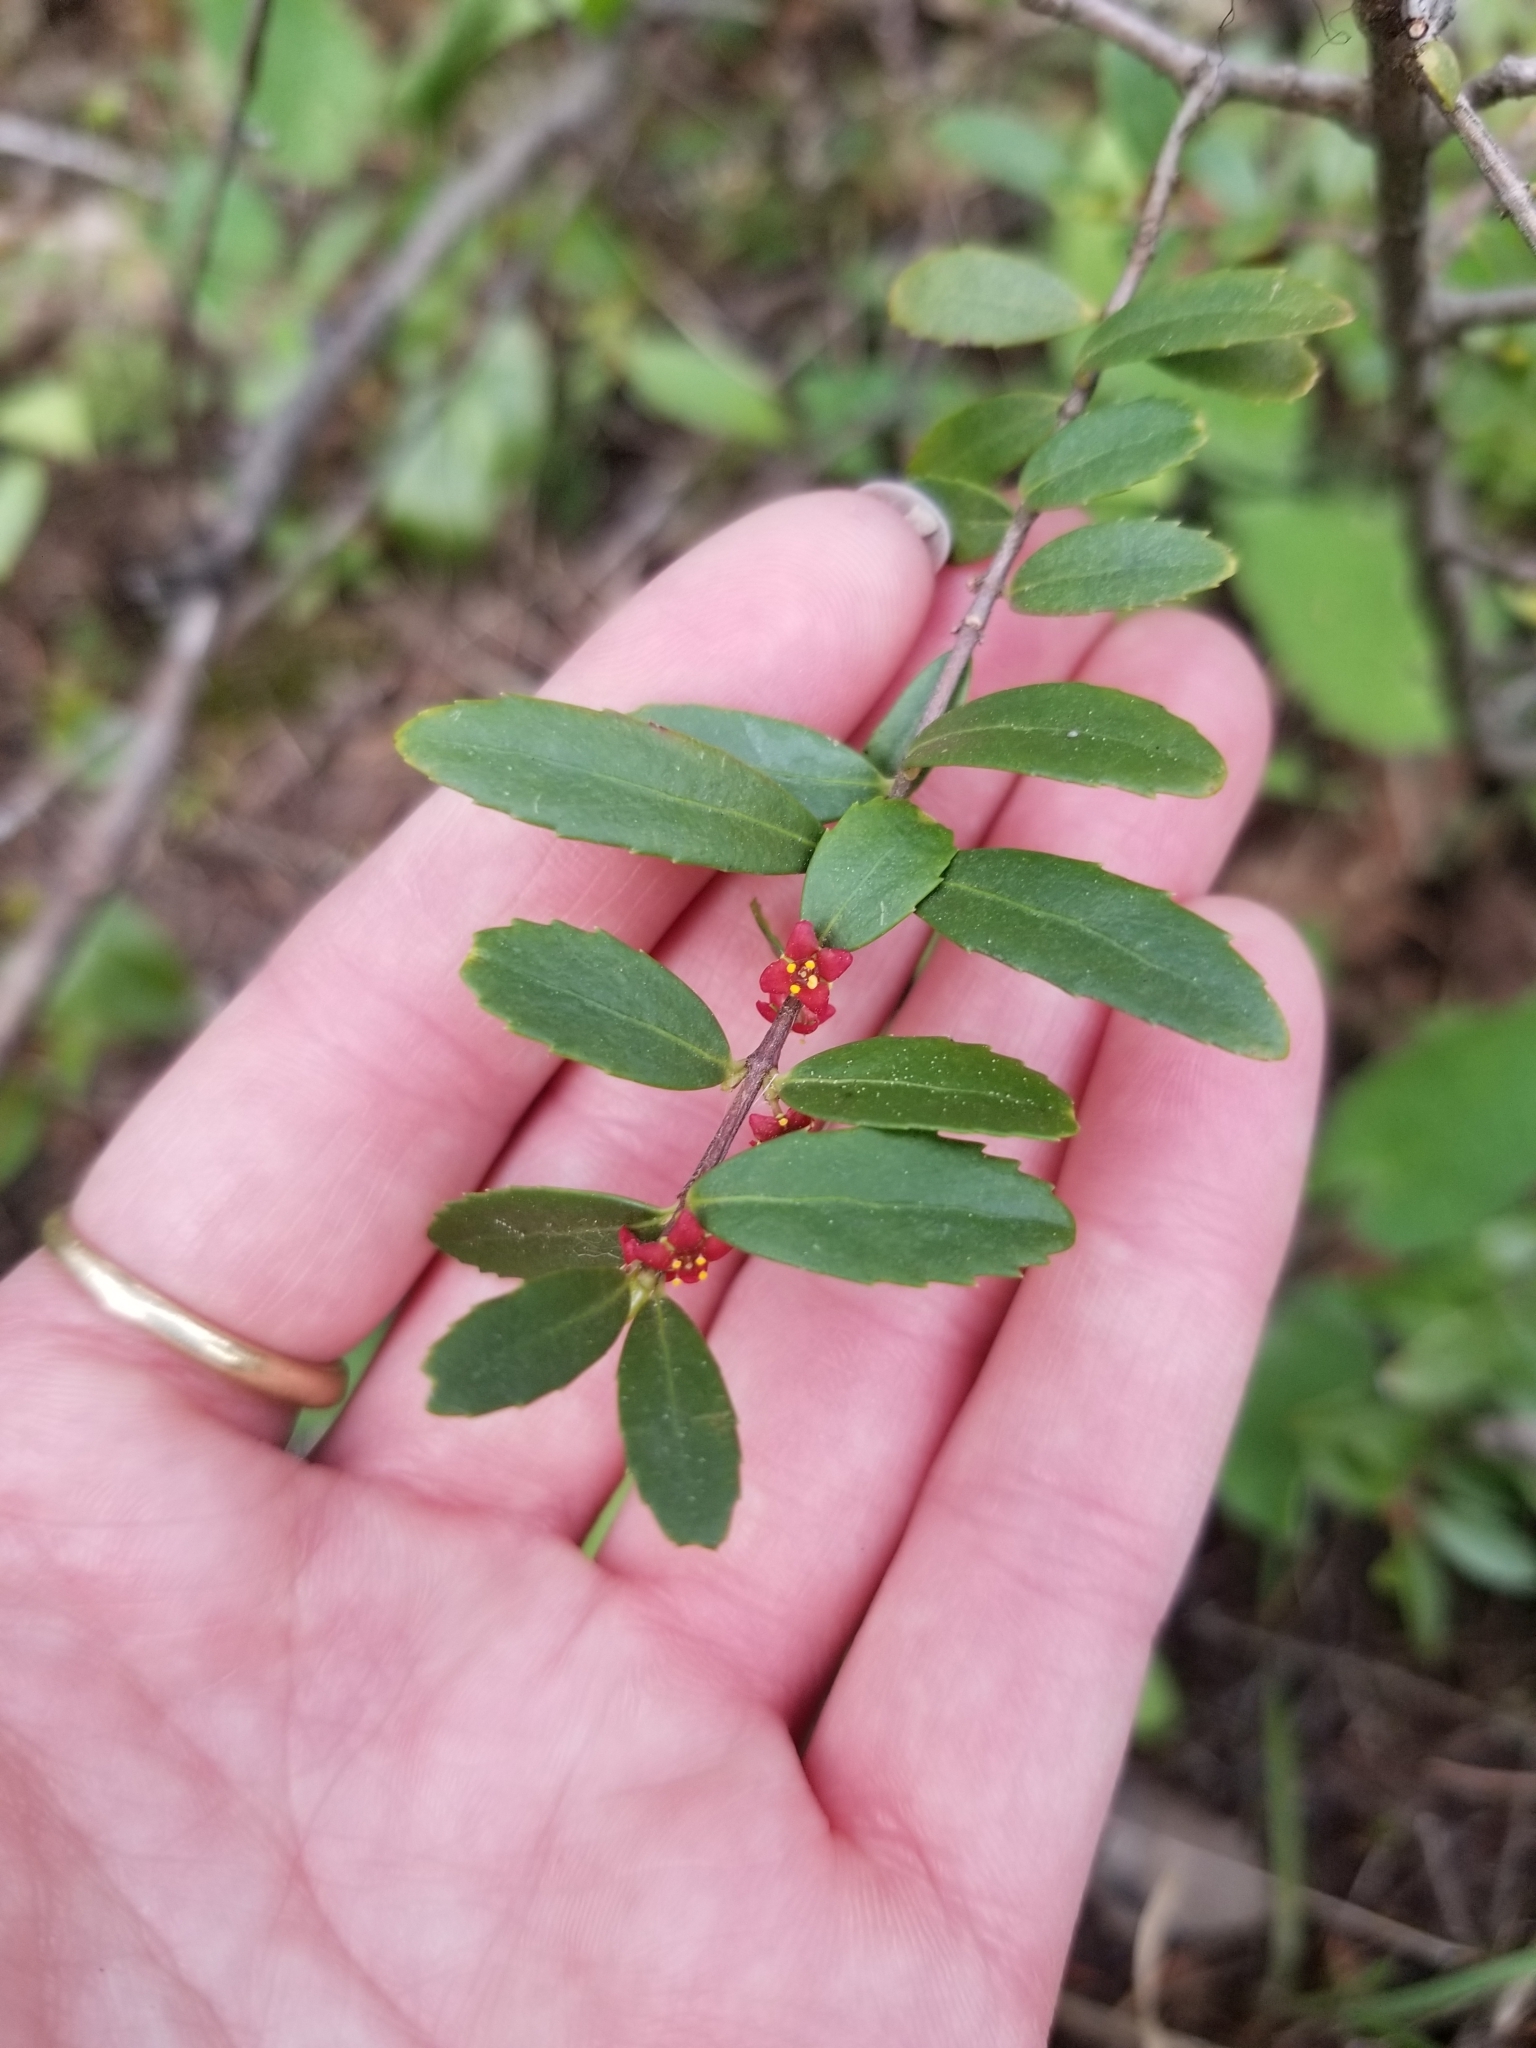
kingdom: Plantae
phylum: Tracheophyta
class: Magnoliopsida
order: Celastrales
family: Celastraceae
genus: Paxistima
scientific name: Paxistima myrsinites
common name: Mountain-lover
